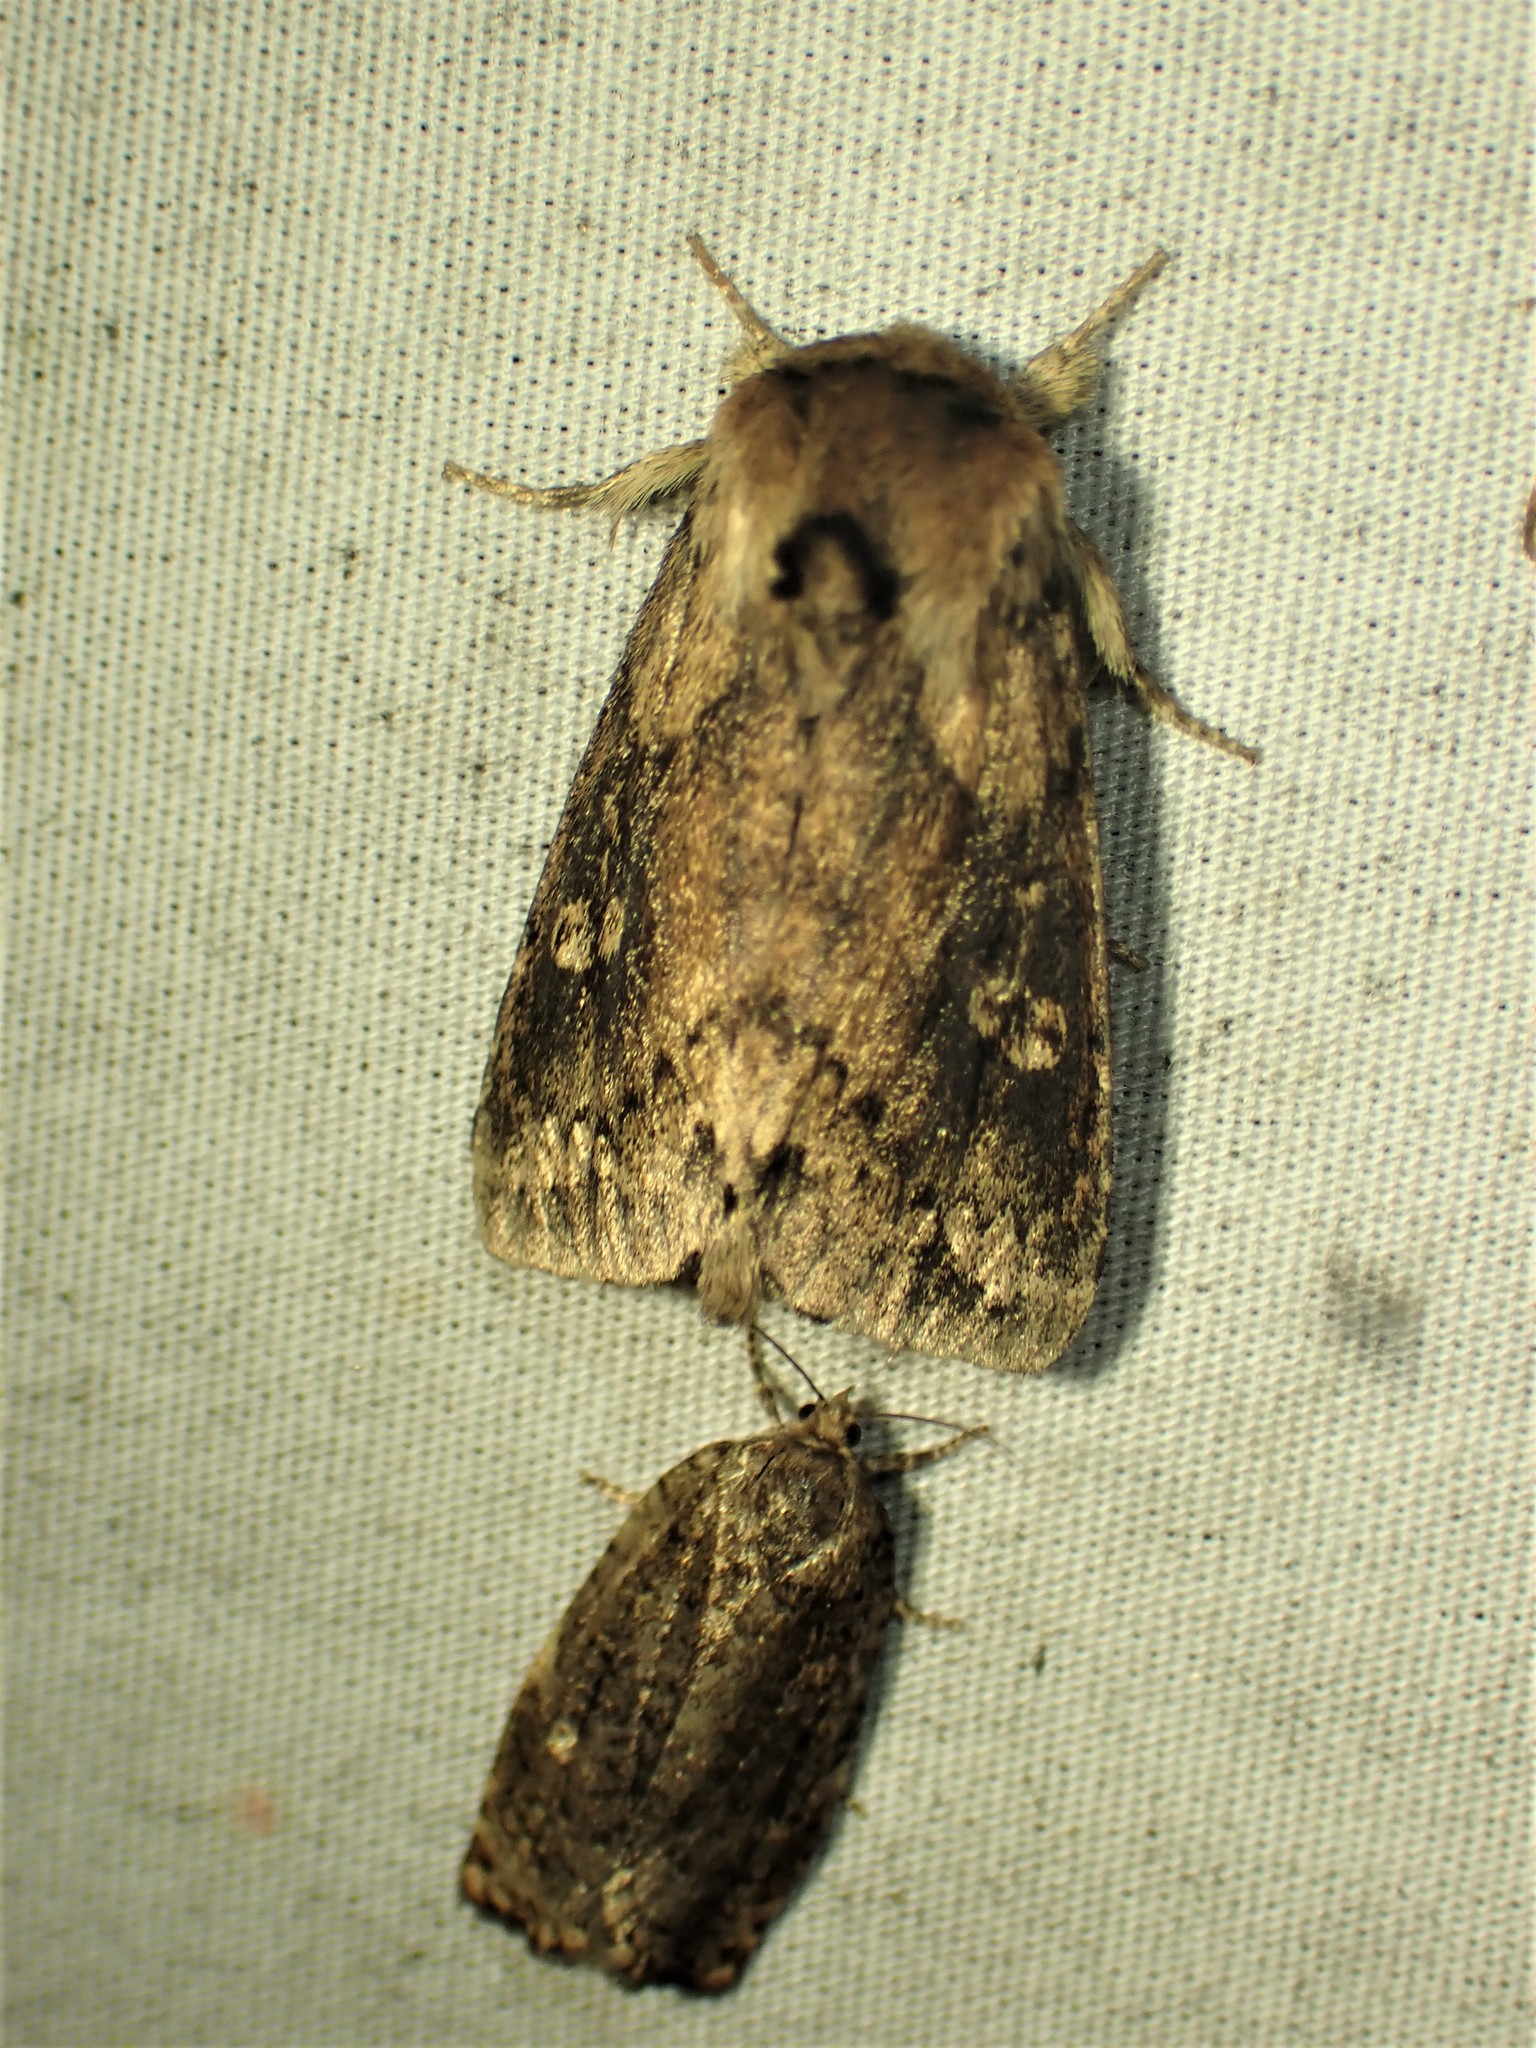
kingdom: Animalia
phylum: Arthropoda
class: Insecta
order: Lepidoptera
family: Noctuidae
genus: Bellura
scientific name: Bellura vulnifica
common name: Black-tailed diver moth
